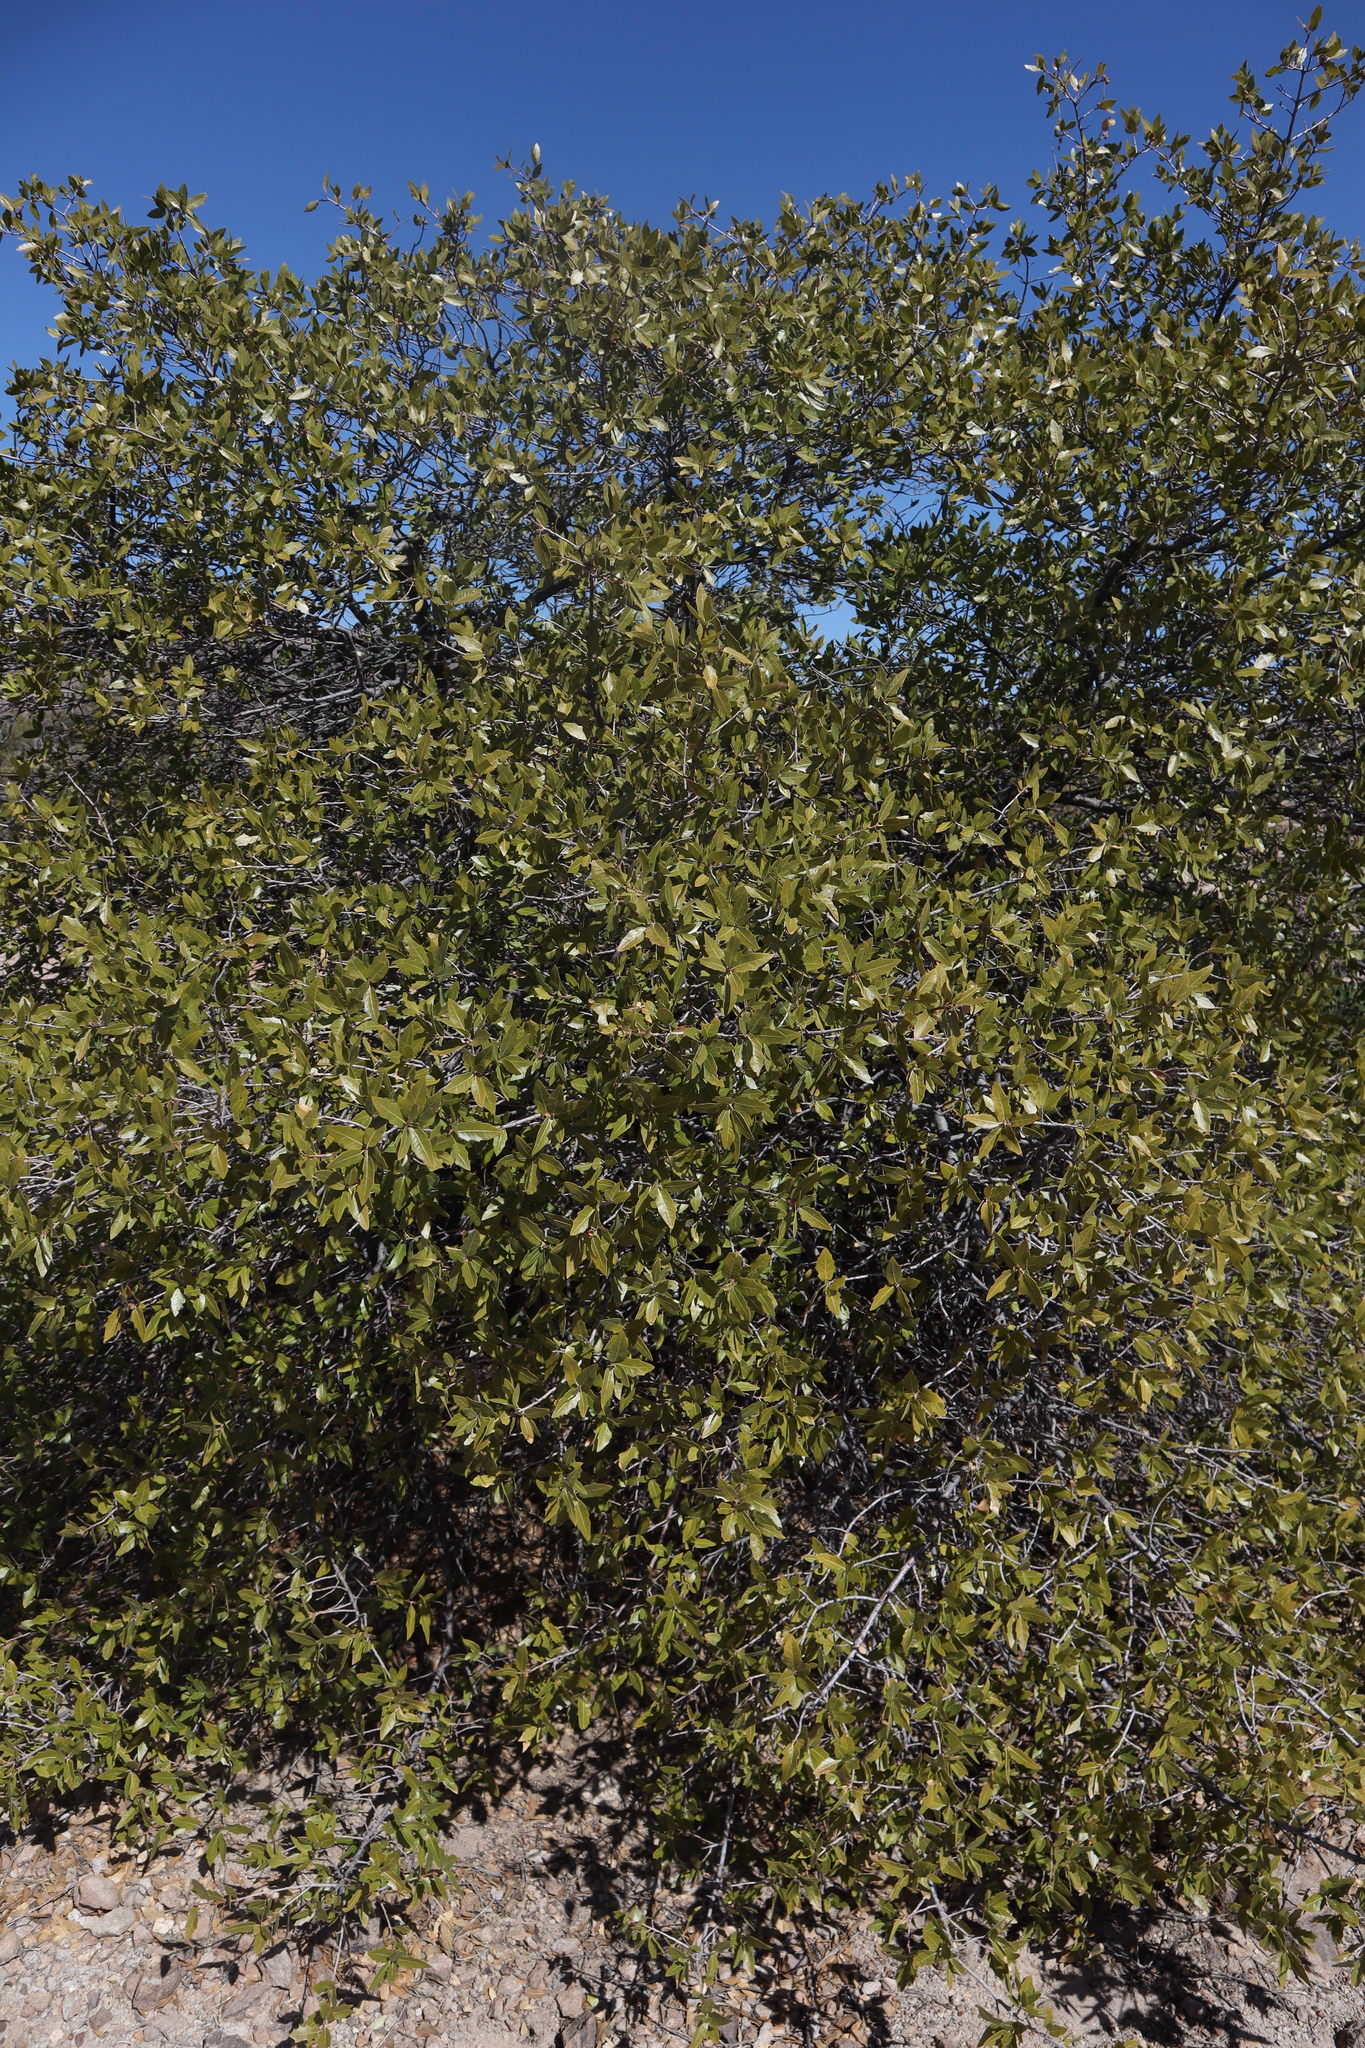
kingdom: Plantae
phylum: Tracheophyta
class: Magnoliopsida
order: Fagales
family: Fagaceae
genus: Quercus
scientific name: Quercus emoryi
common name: Emory oak
